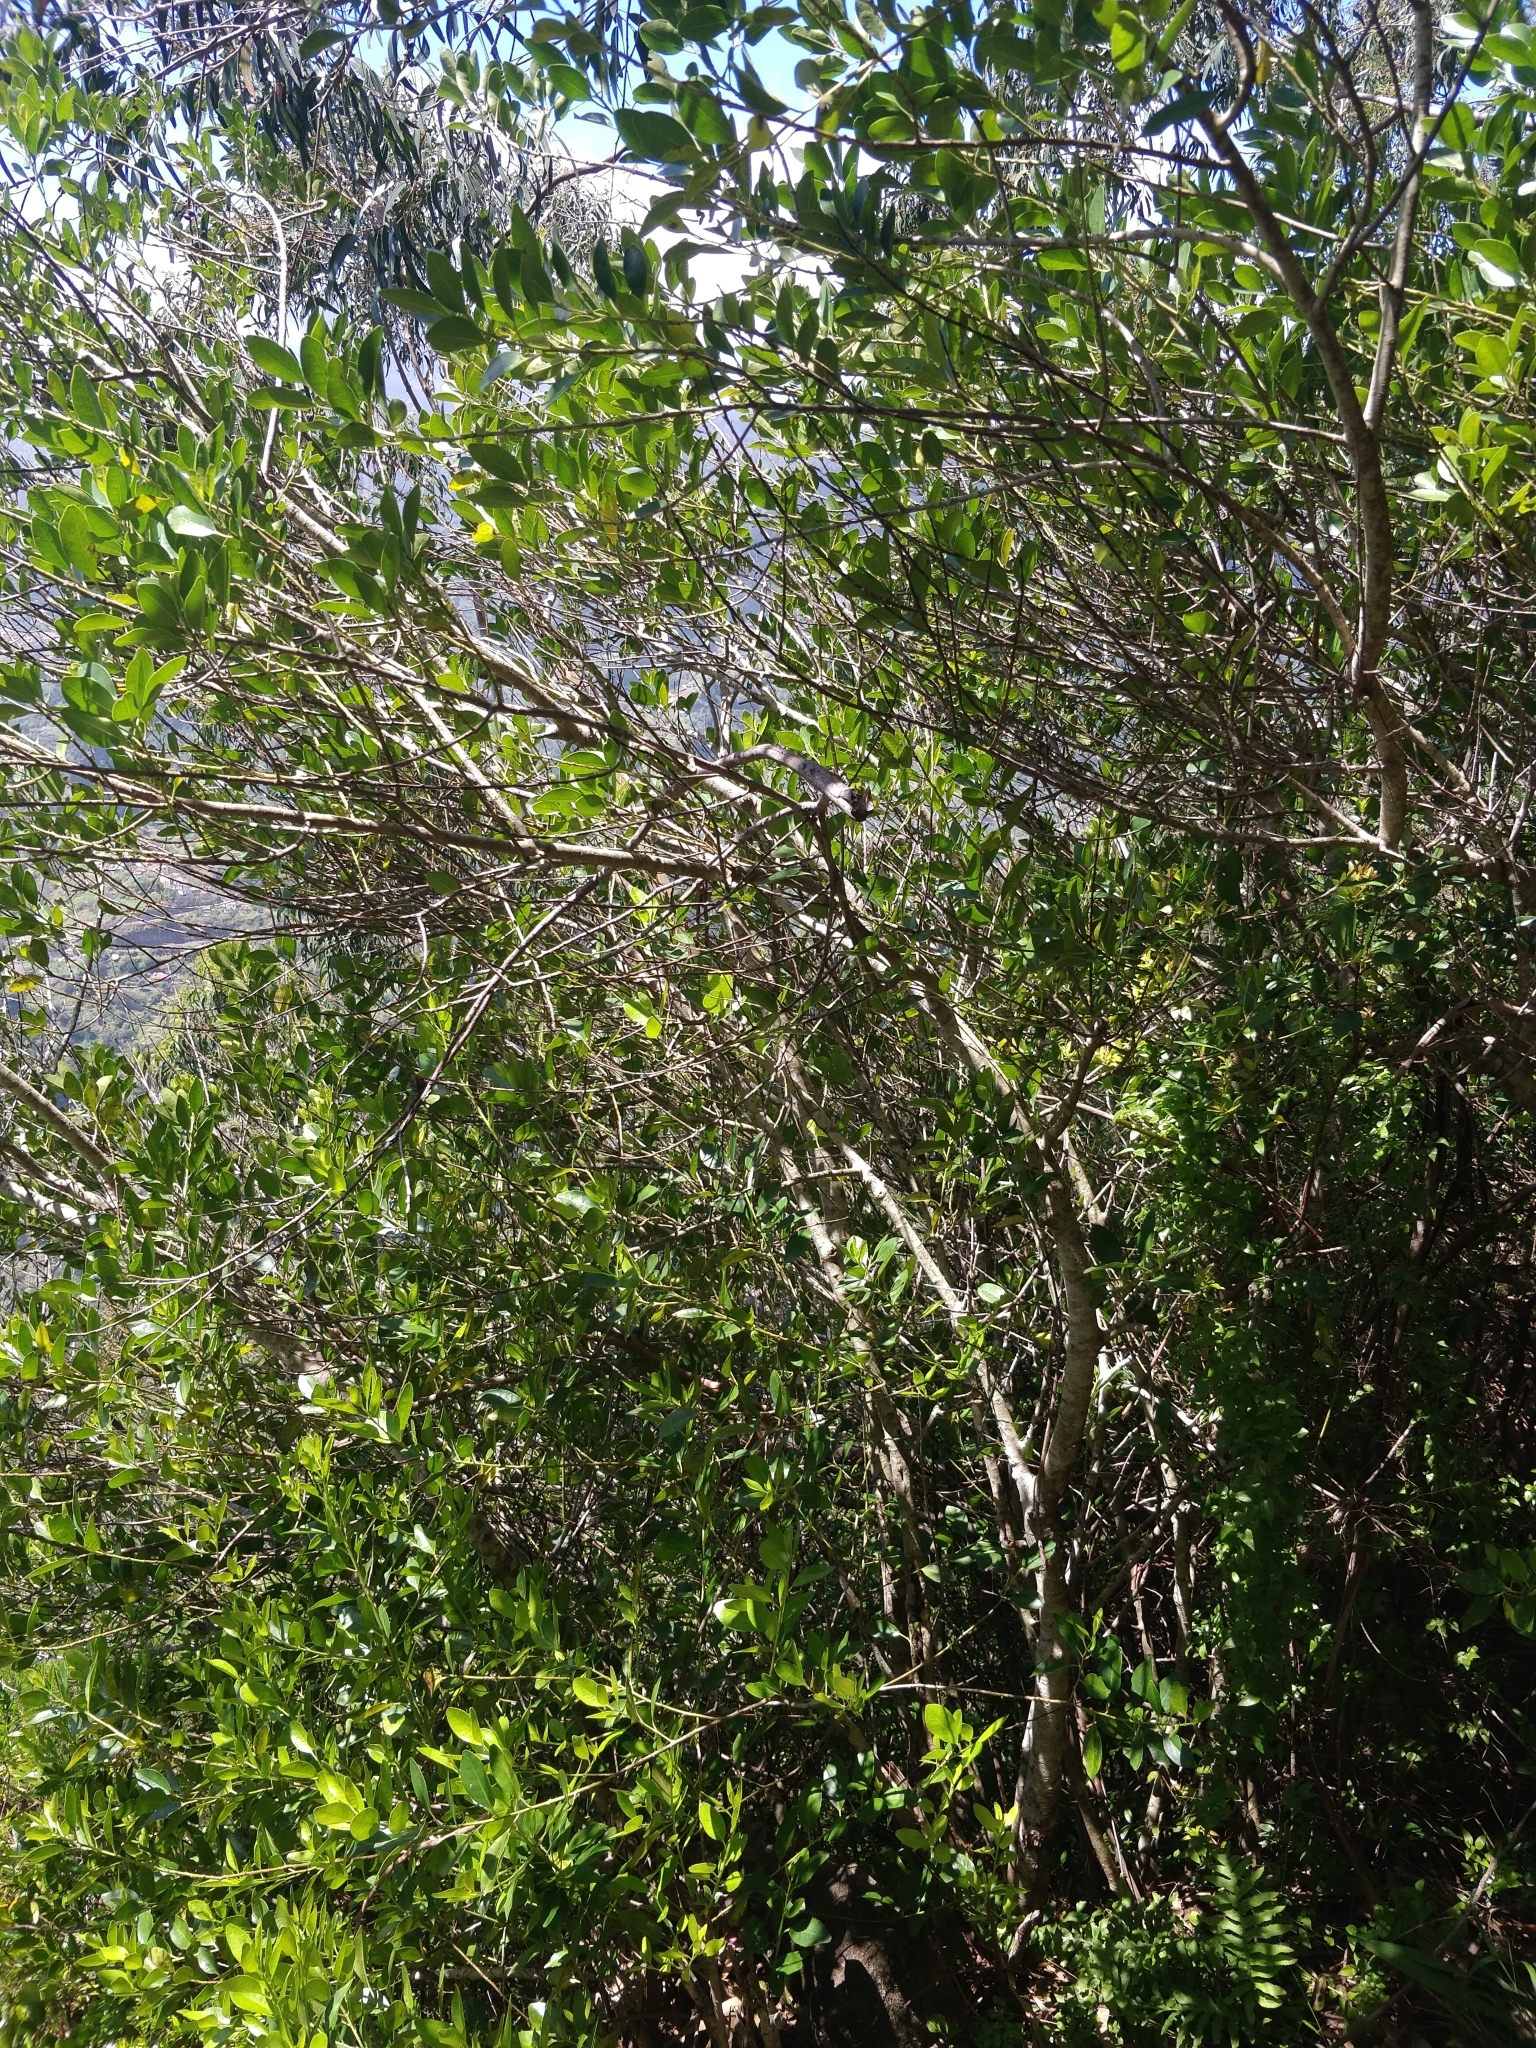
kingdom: Plantae
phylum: Tracheophyta
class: Magnoliopsida
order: Aquifoliales
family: Aquifoliaceae
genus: Ilex
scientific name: Ilex canariensis
